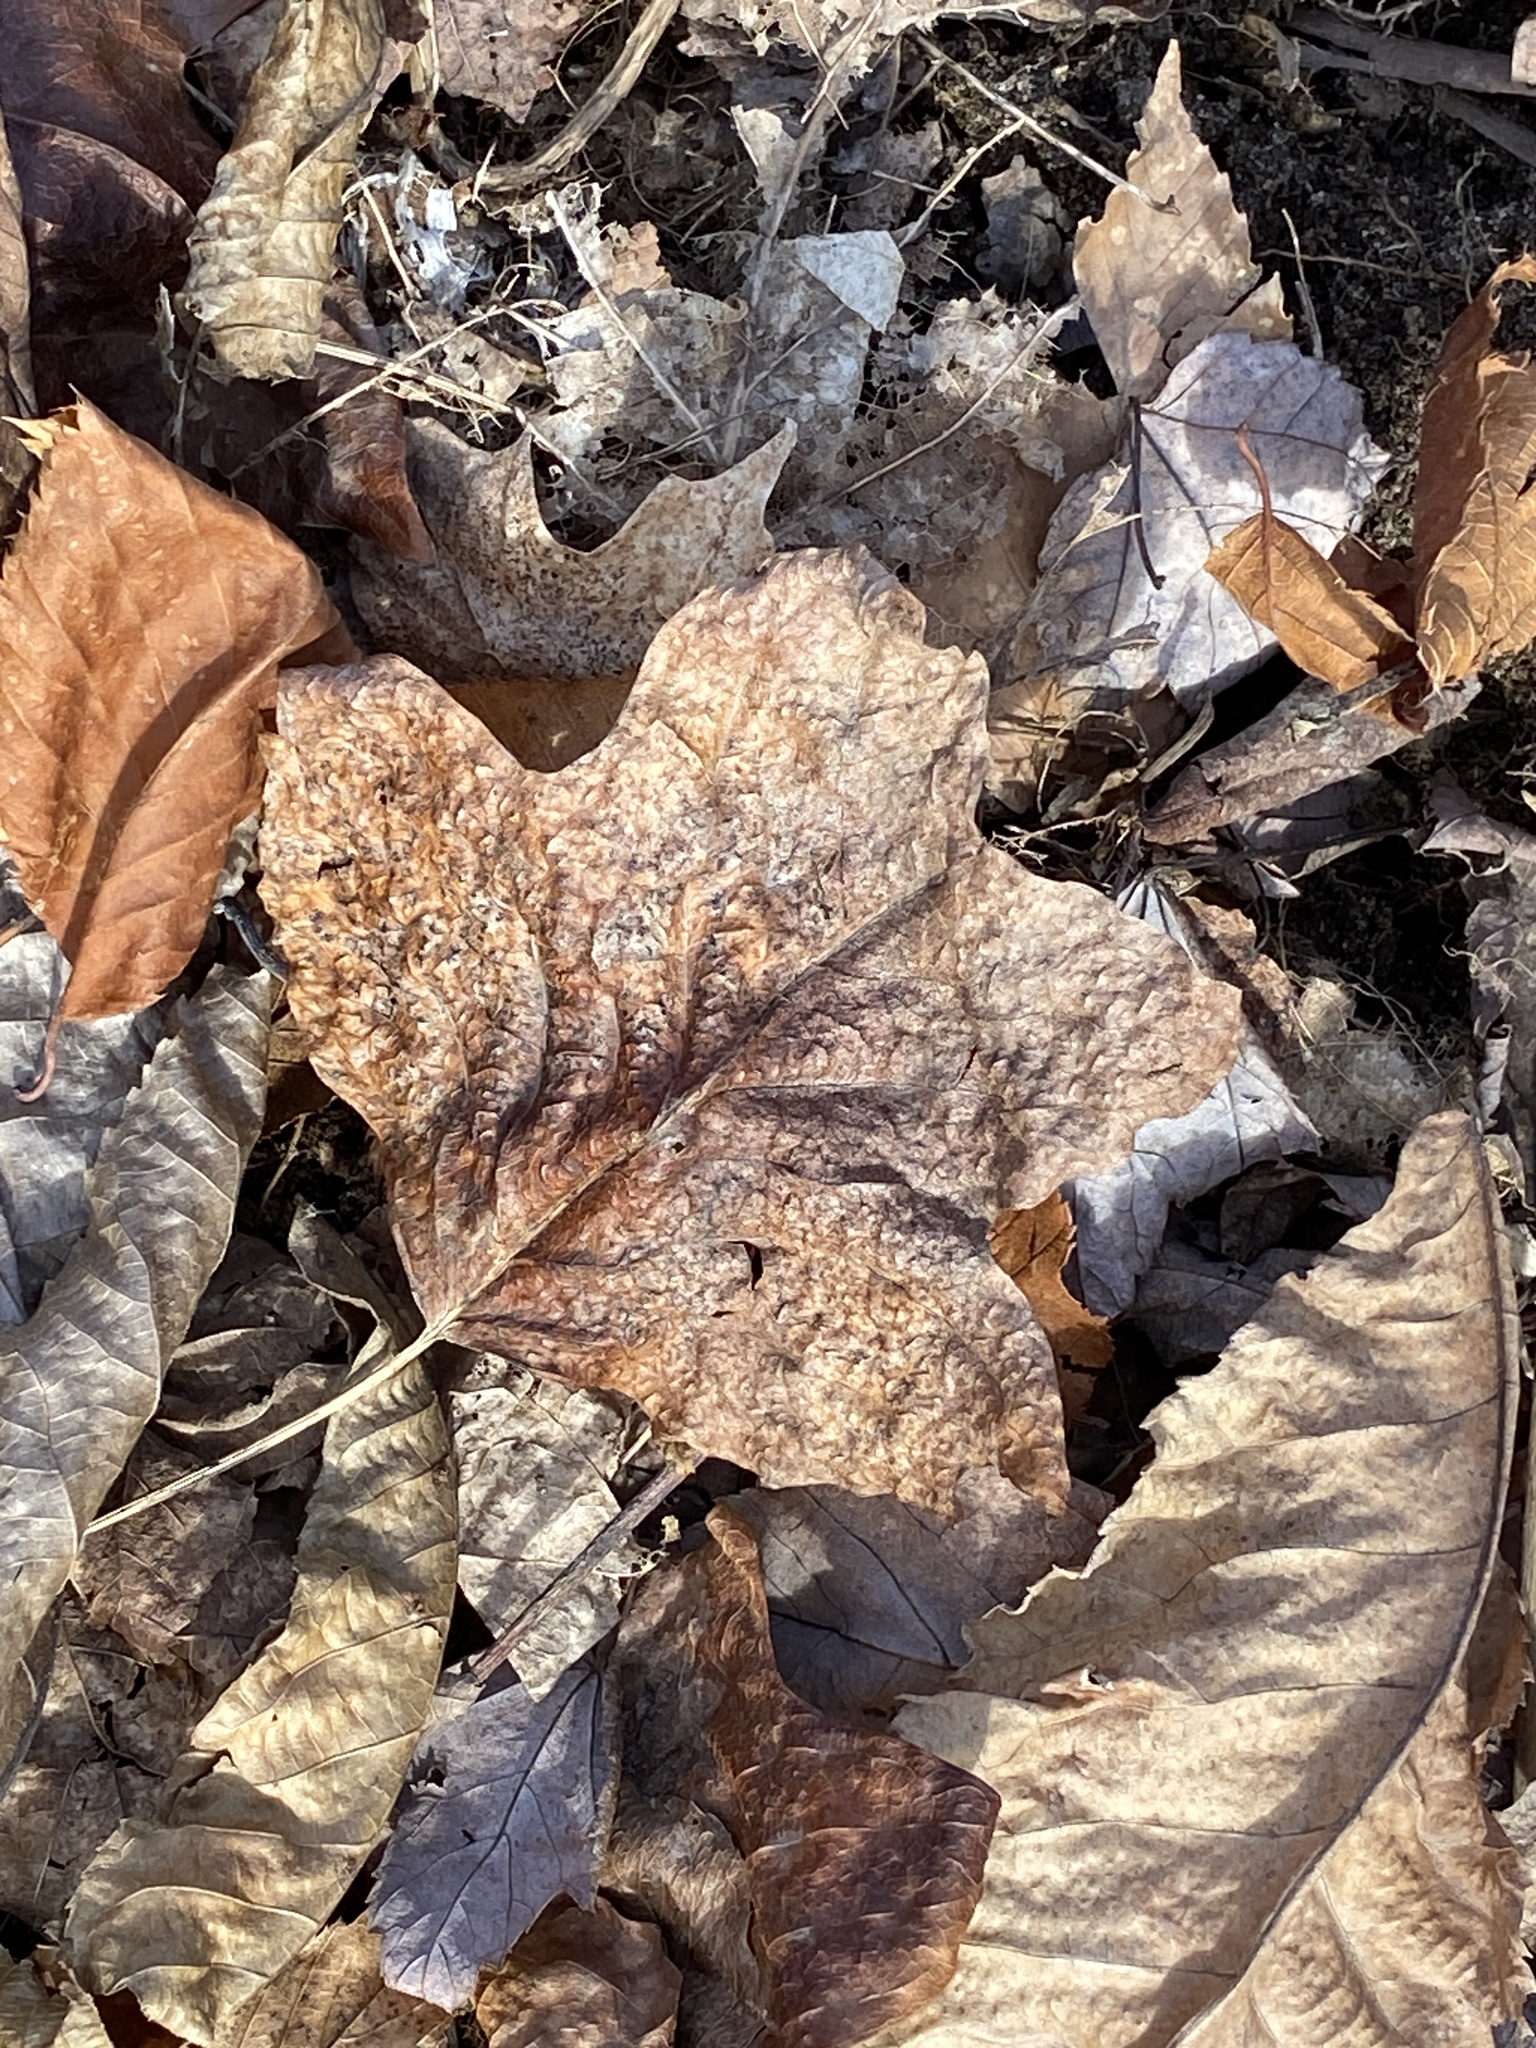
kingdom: Plantae
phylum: Tracheophyta
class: Magnoliopsida
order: Magnoliales
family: Magnoliaceae
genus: Liriodendron
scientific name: Liriodendron tulipifera
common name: Tulip tree
